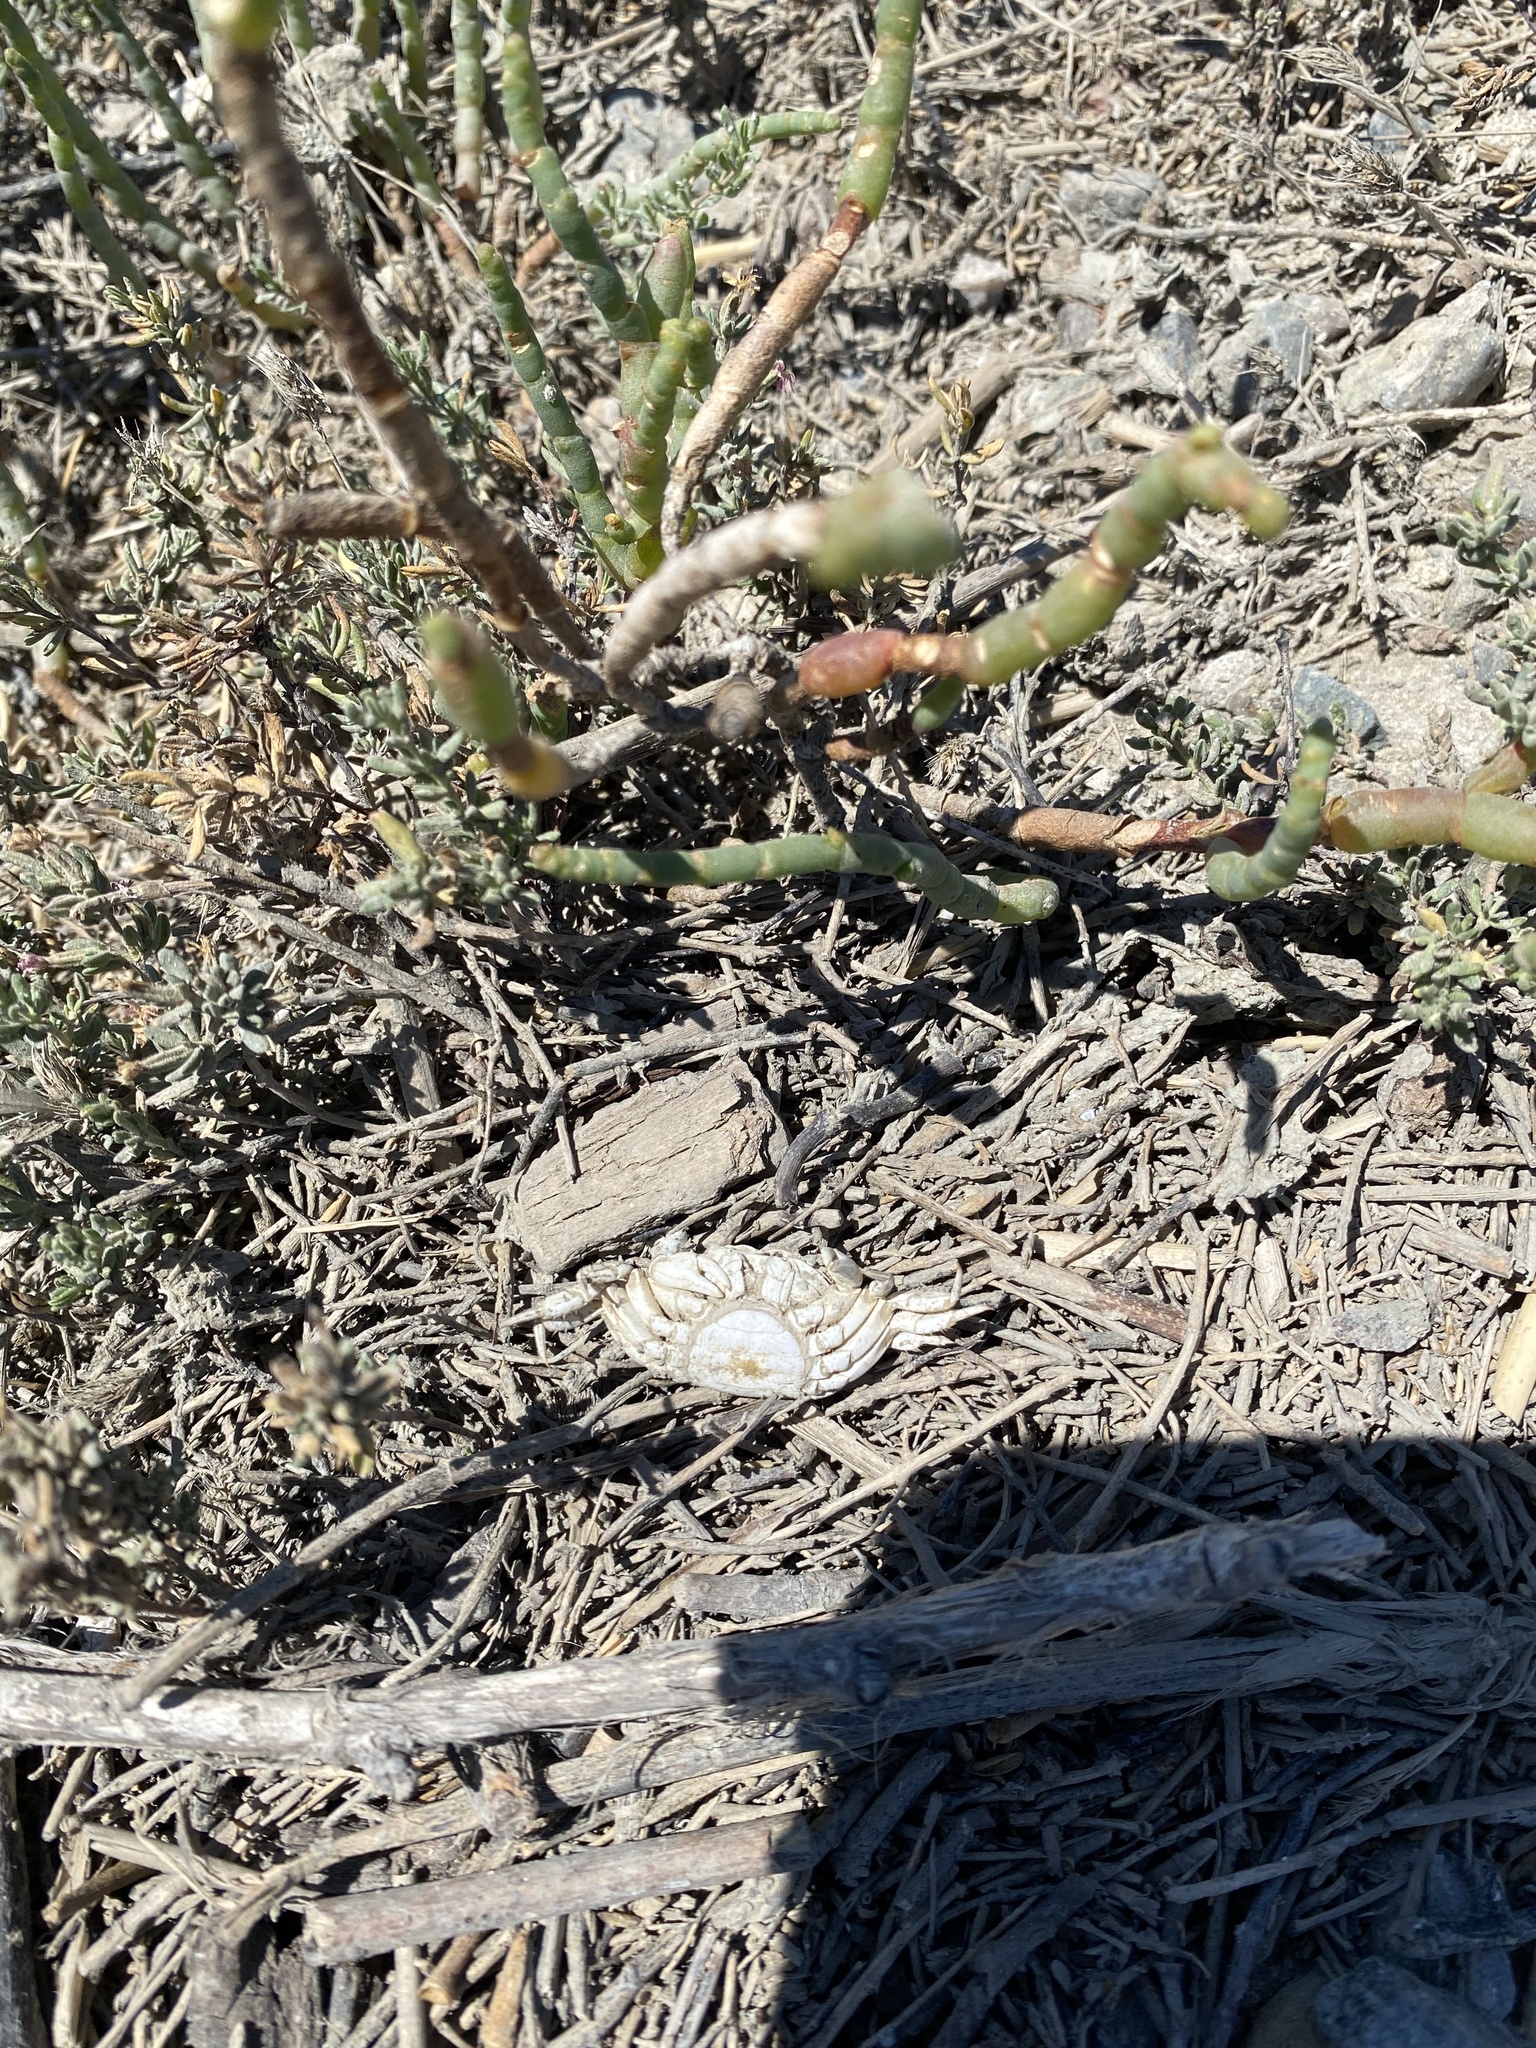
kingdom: Animalia
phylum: Arthropoda
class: Malacostraca
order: Decapoda
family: Varunidae
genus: Hemigrapsus
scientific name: Hemigrapsus oregonensis
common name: Yellow shore crab
